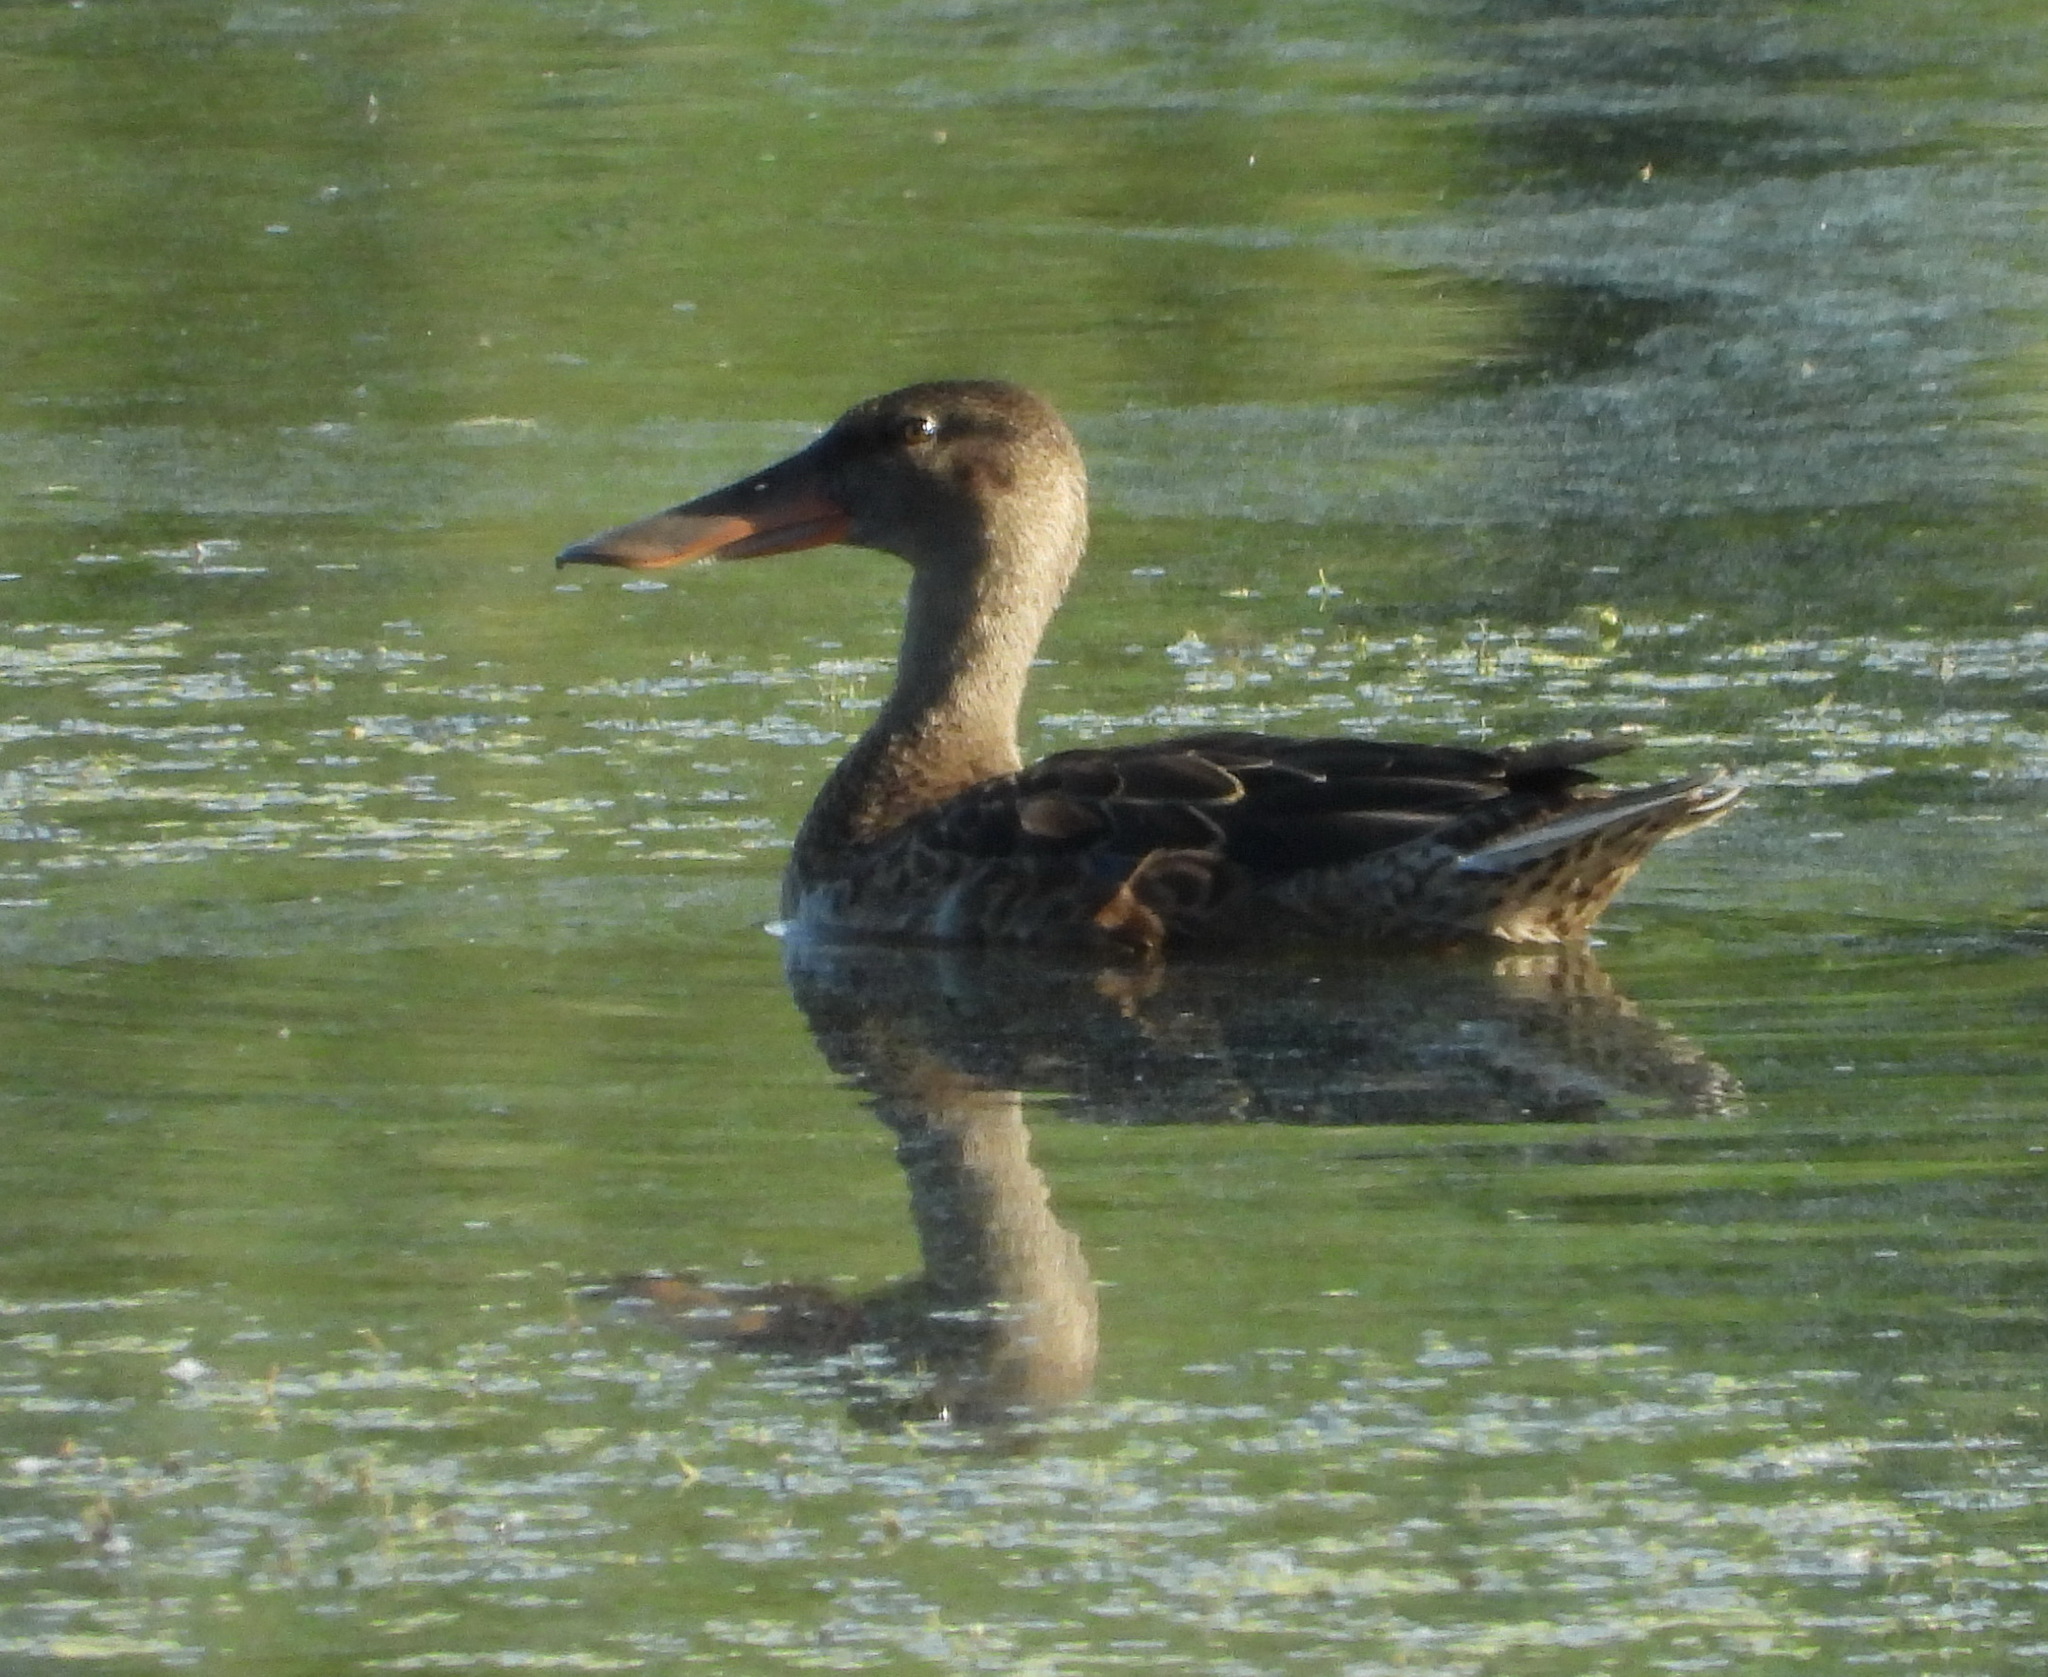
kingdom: Animalia
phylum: Chordata
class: Aves
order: Anseriformes
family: Anatidae
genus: Spatula
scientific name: Spatula clypeata
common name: Northern shoveler
